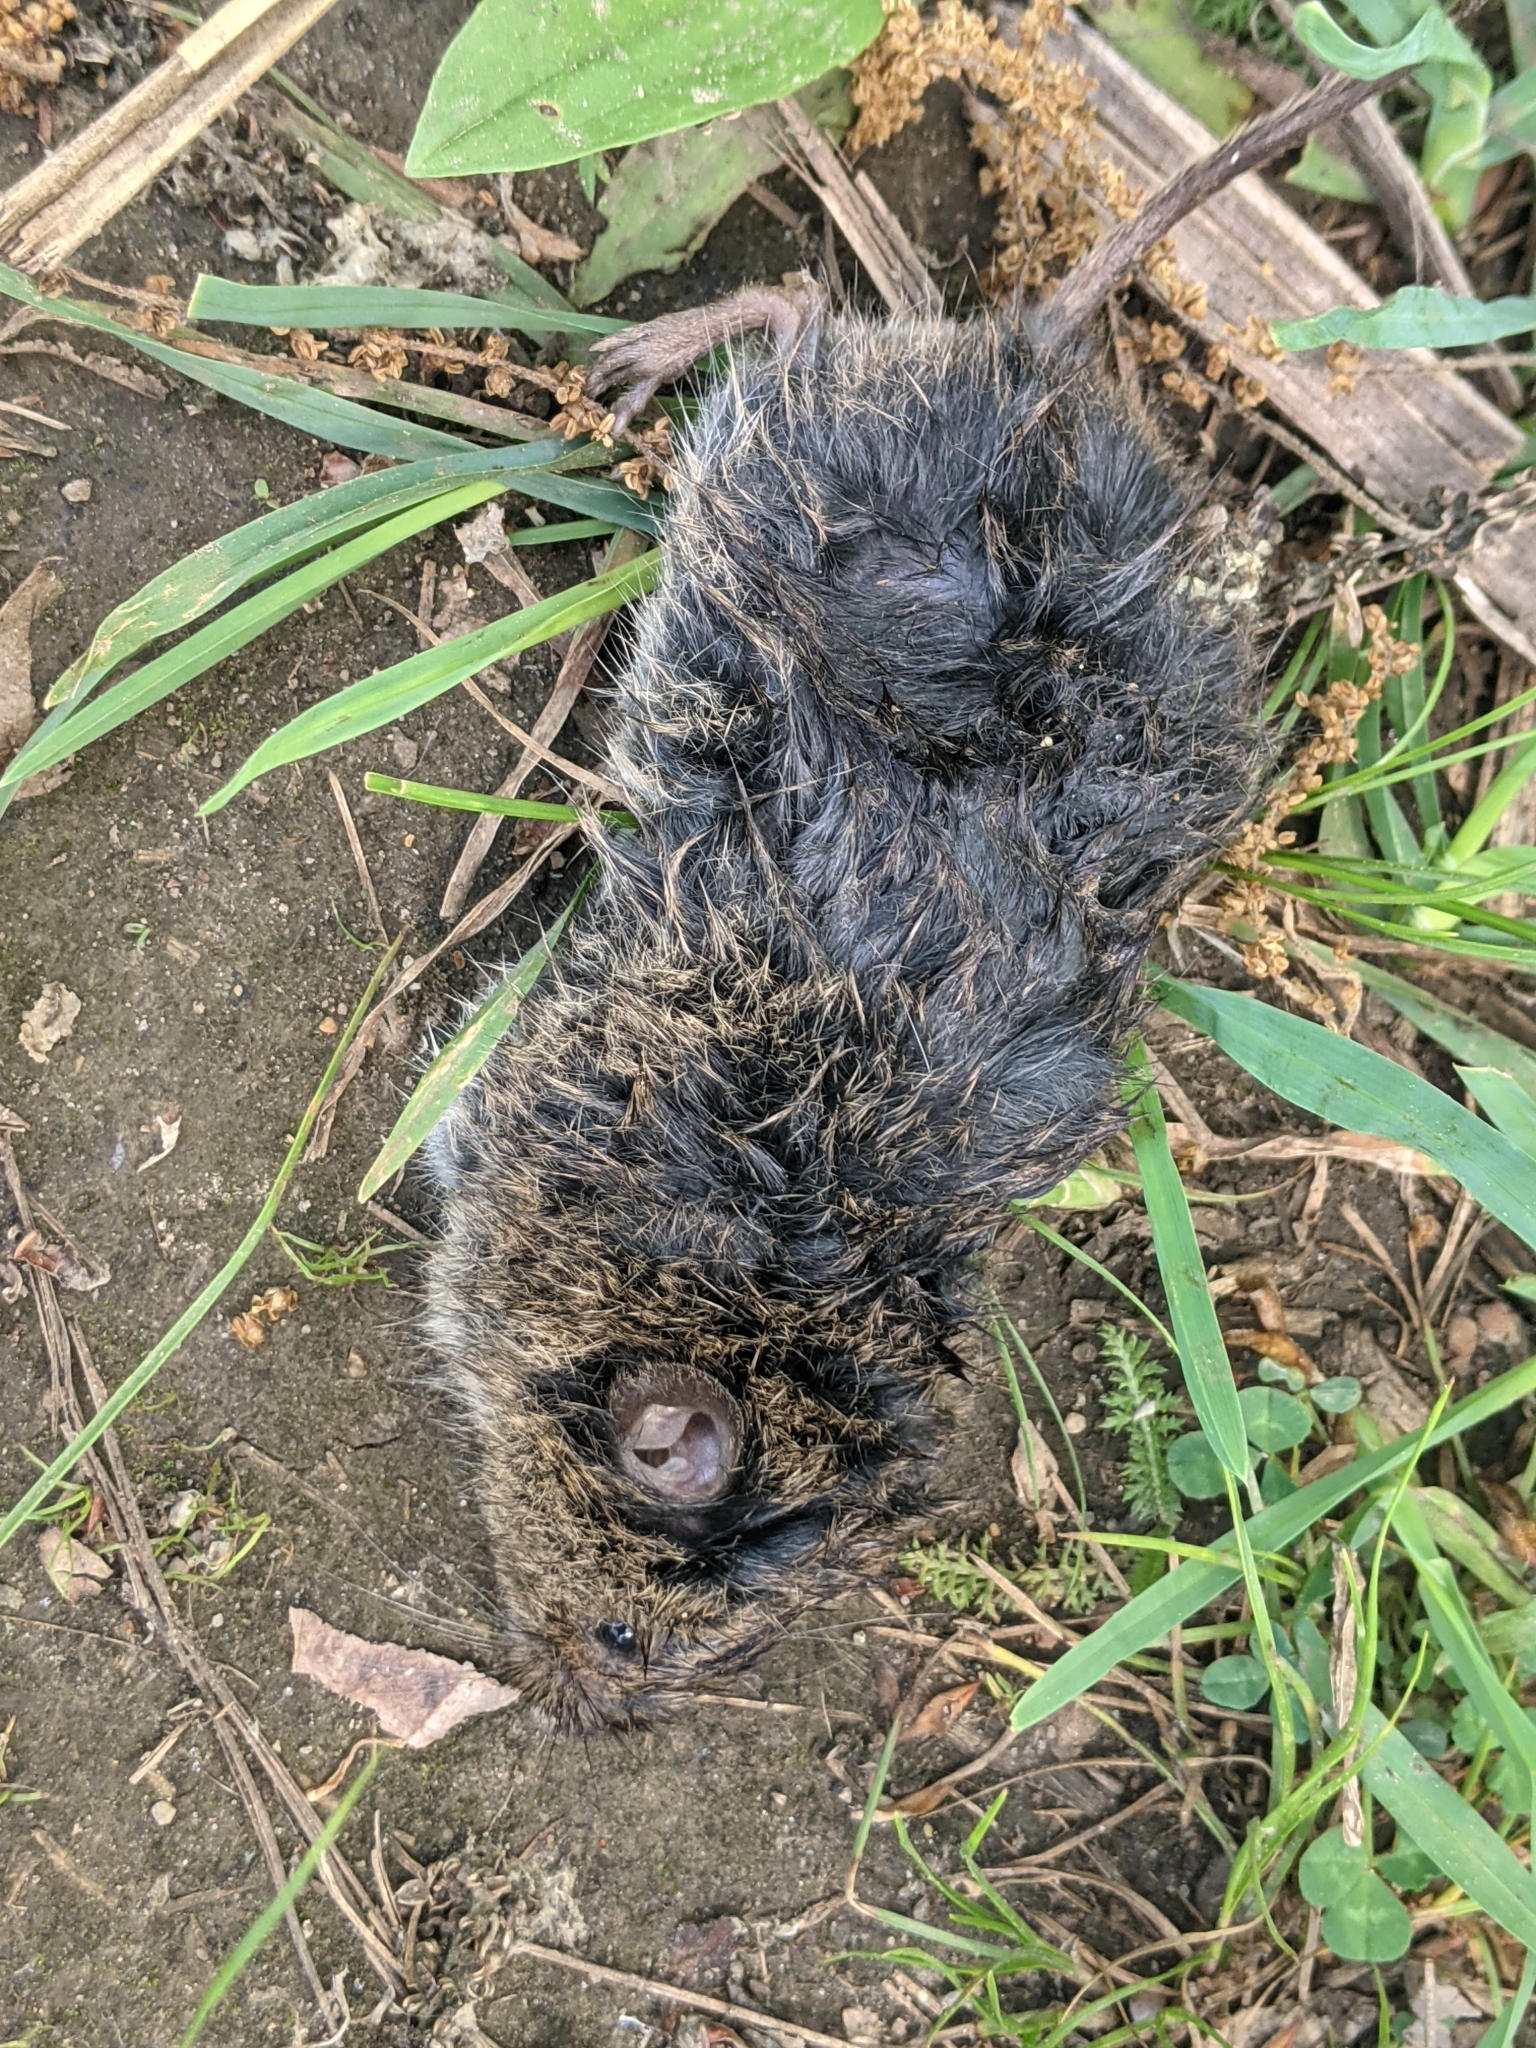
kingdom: Animalia
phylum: Chordata
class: Mammalia
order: Rodentia
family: Cricetidae
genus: Microtus
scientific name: Microtus pennsylvanicus
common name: Meadow vole
